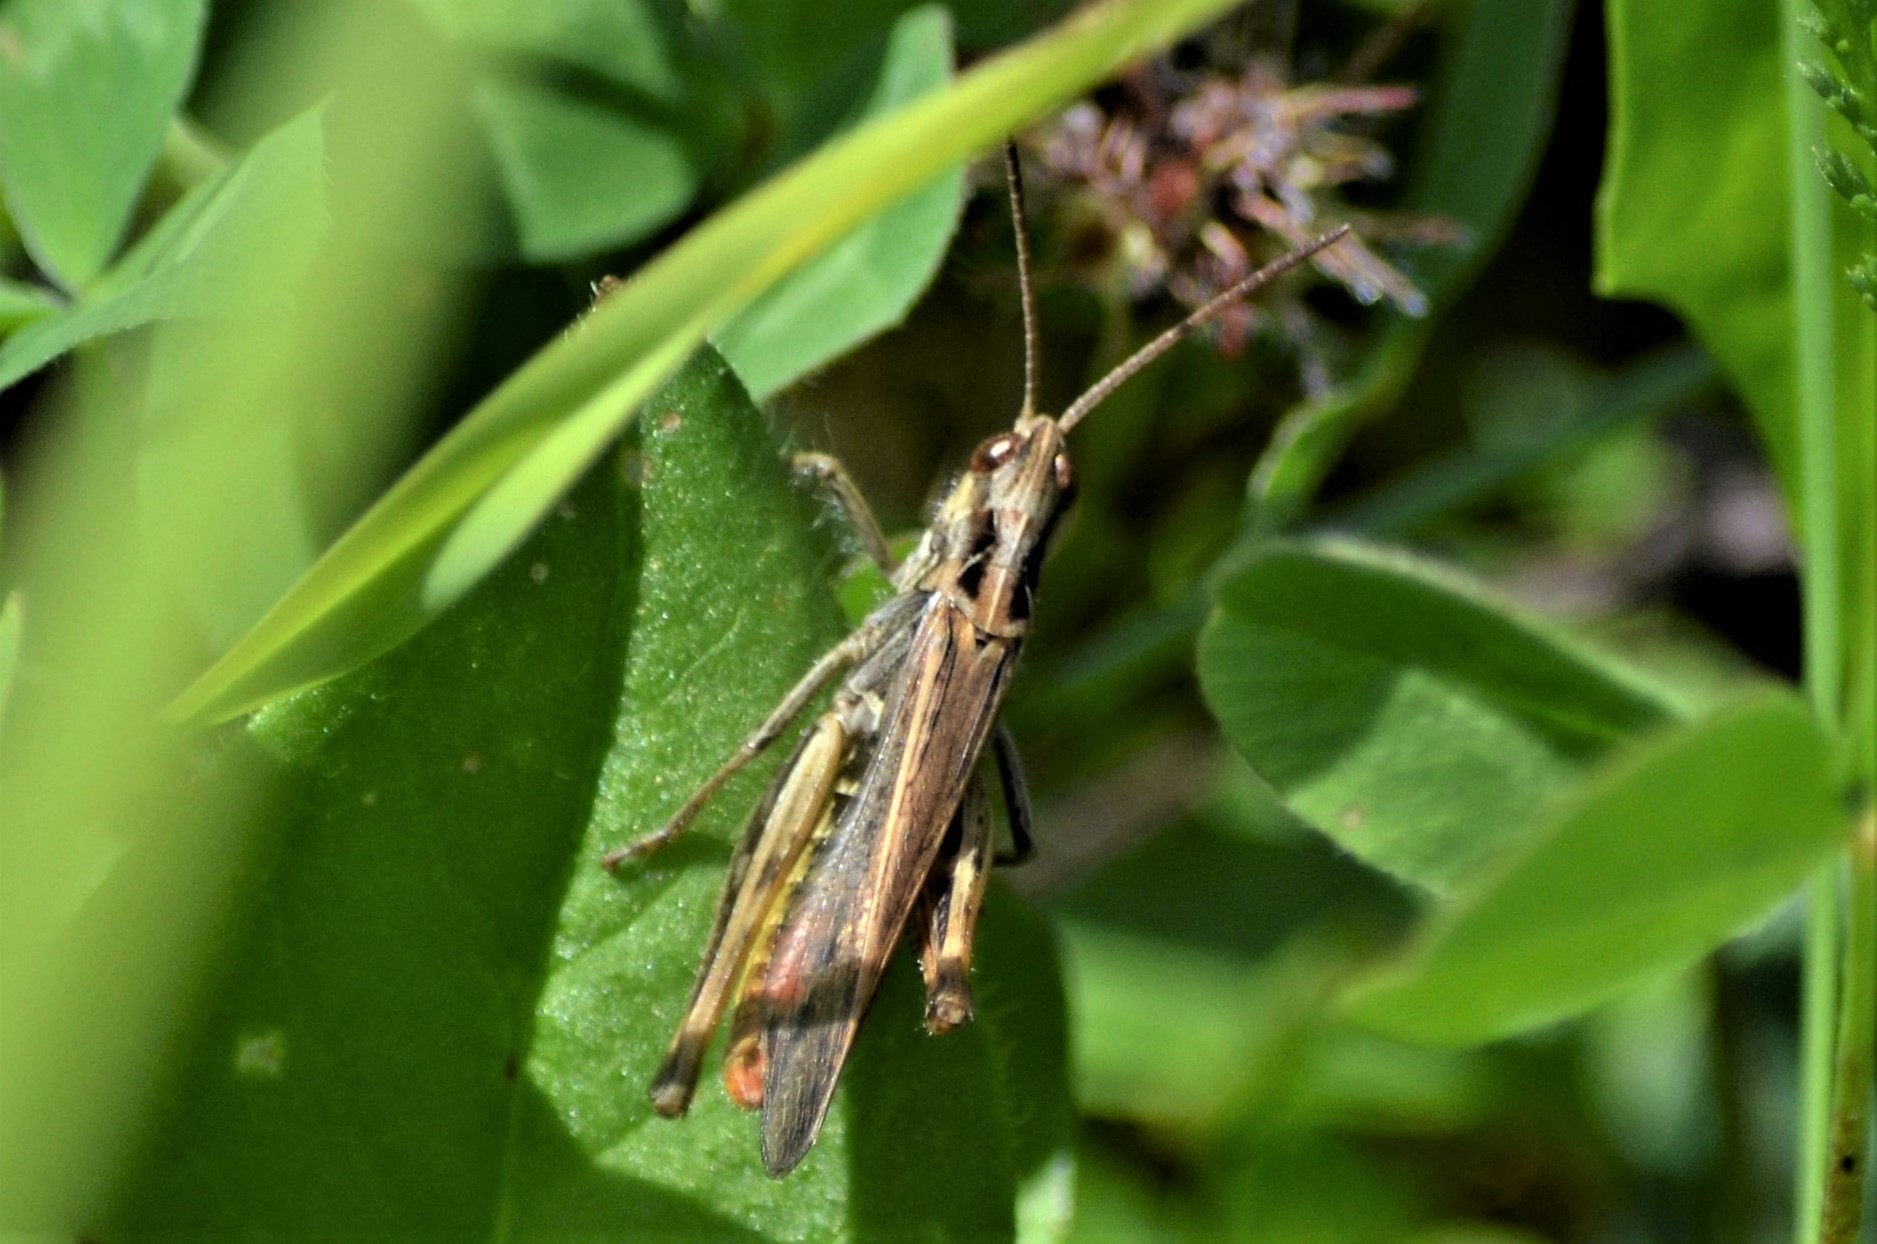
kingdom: Animalia
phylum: Arthropoda
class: Insecta
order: Orthoptera
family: Acrididae
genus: Chorthippus
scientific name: Chorthippus biguttulus
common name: Bow-winged grasshopper
